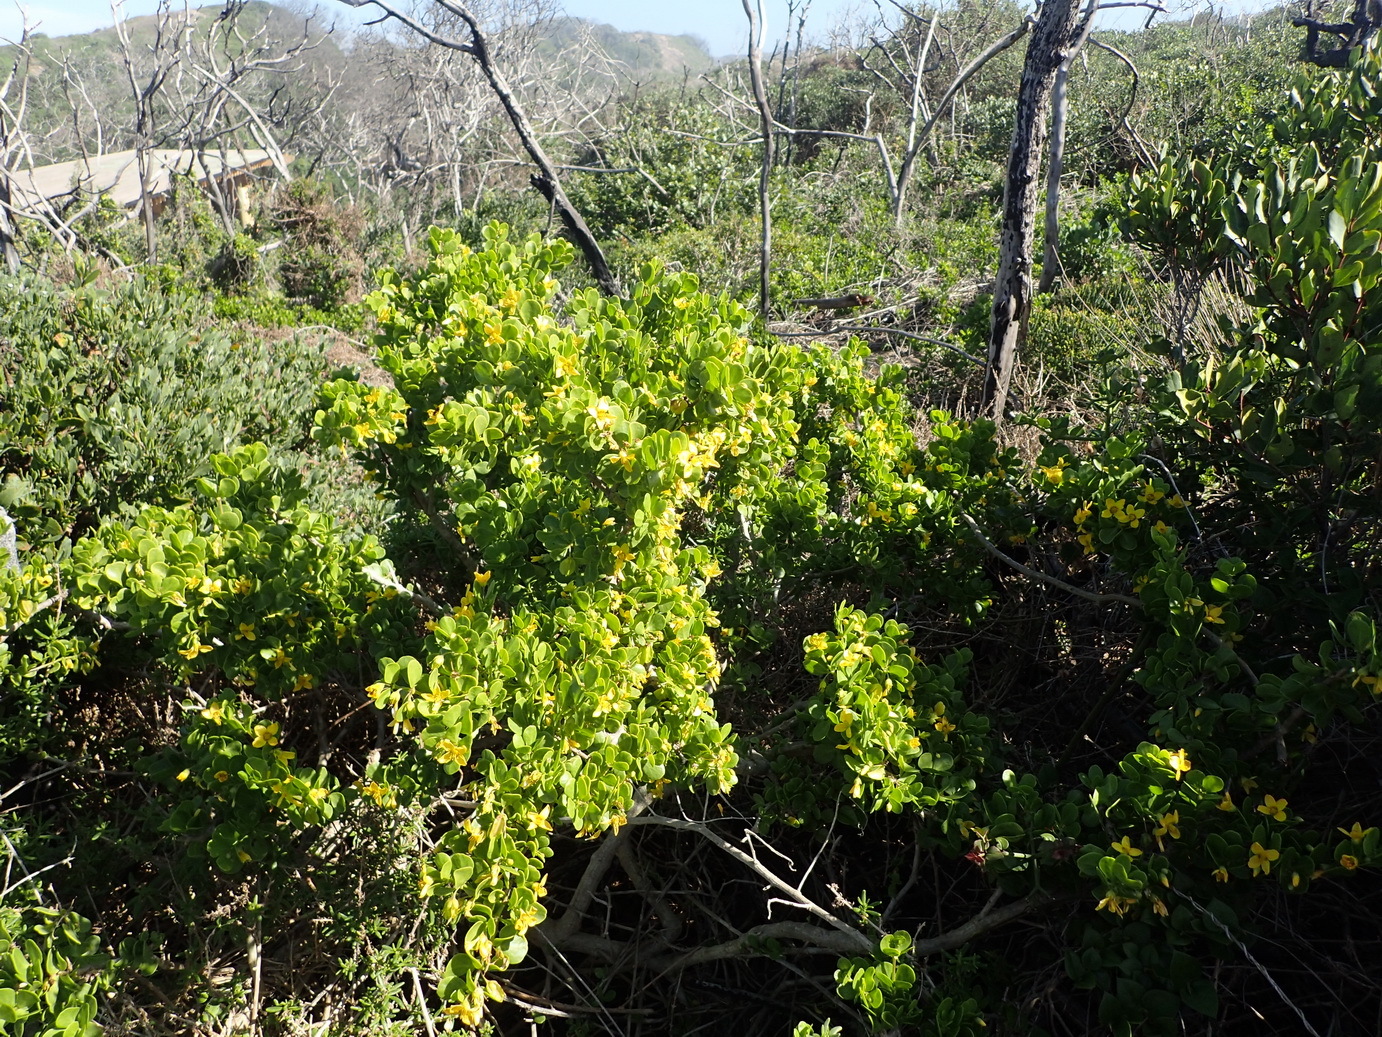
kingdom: Plantae
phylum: Tracheophyta
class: Magnoliopsida
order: Zygophyllales
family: Zygophyllaceae
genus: Roepera
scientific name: Roepera morgsana
